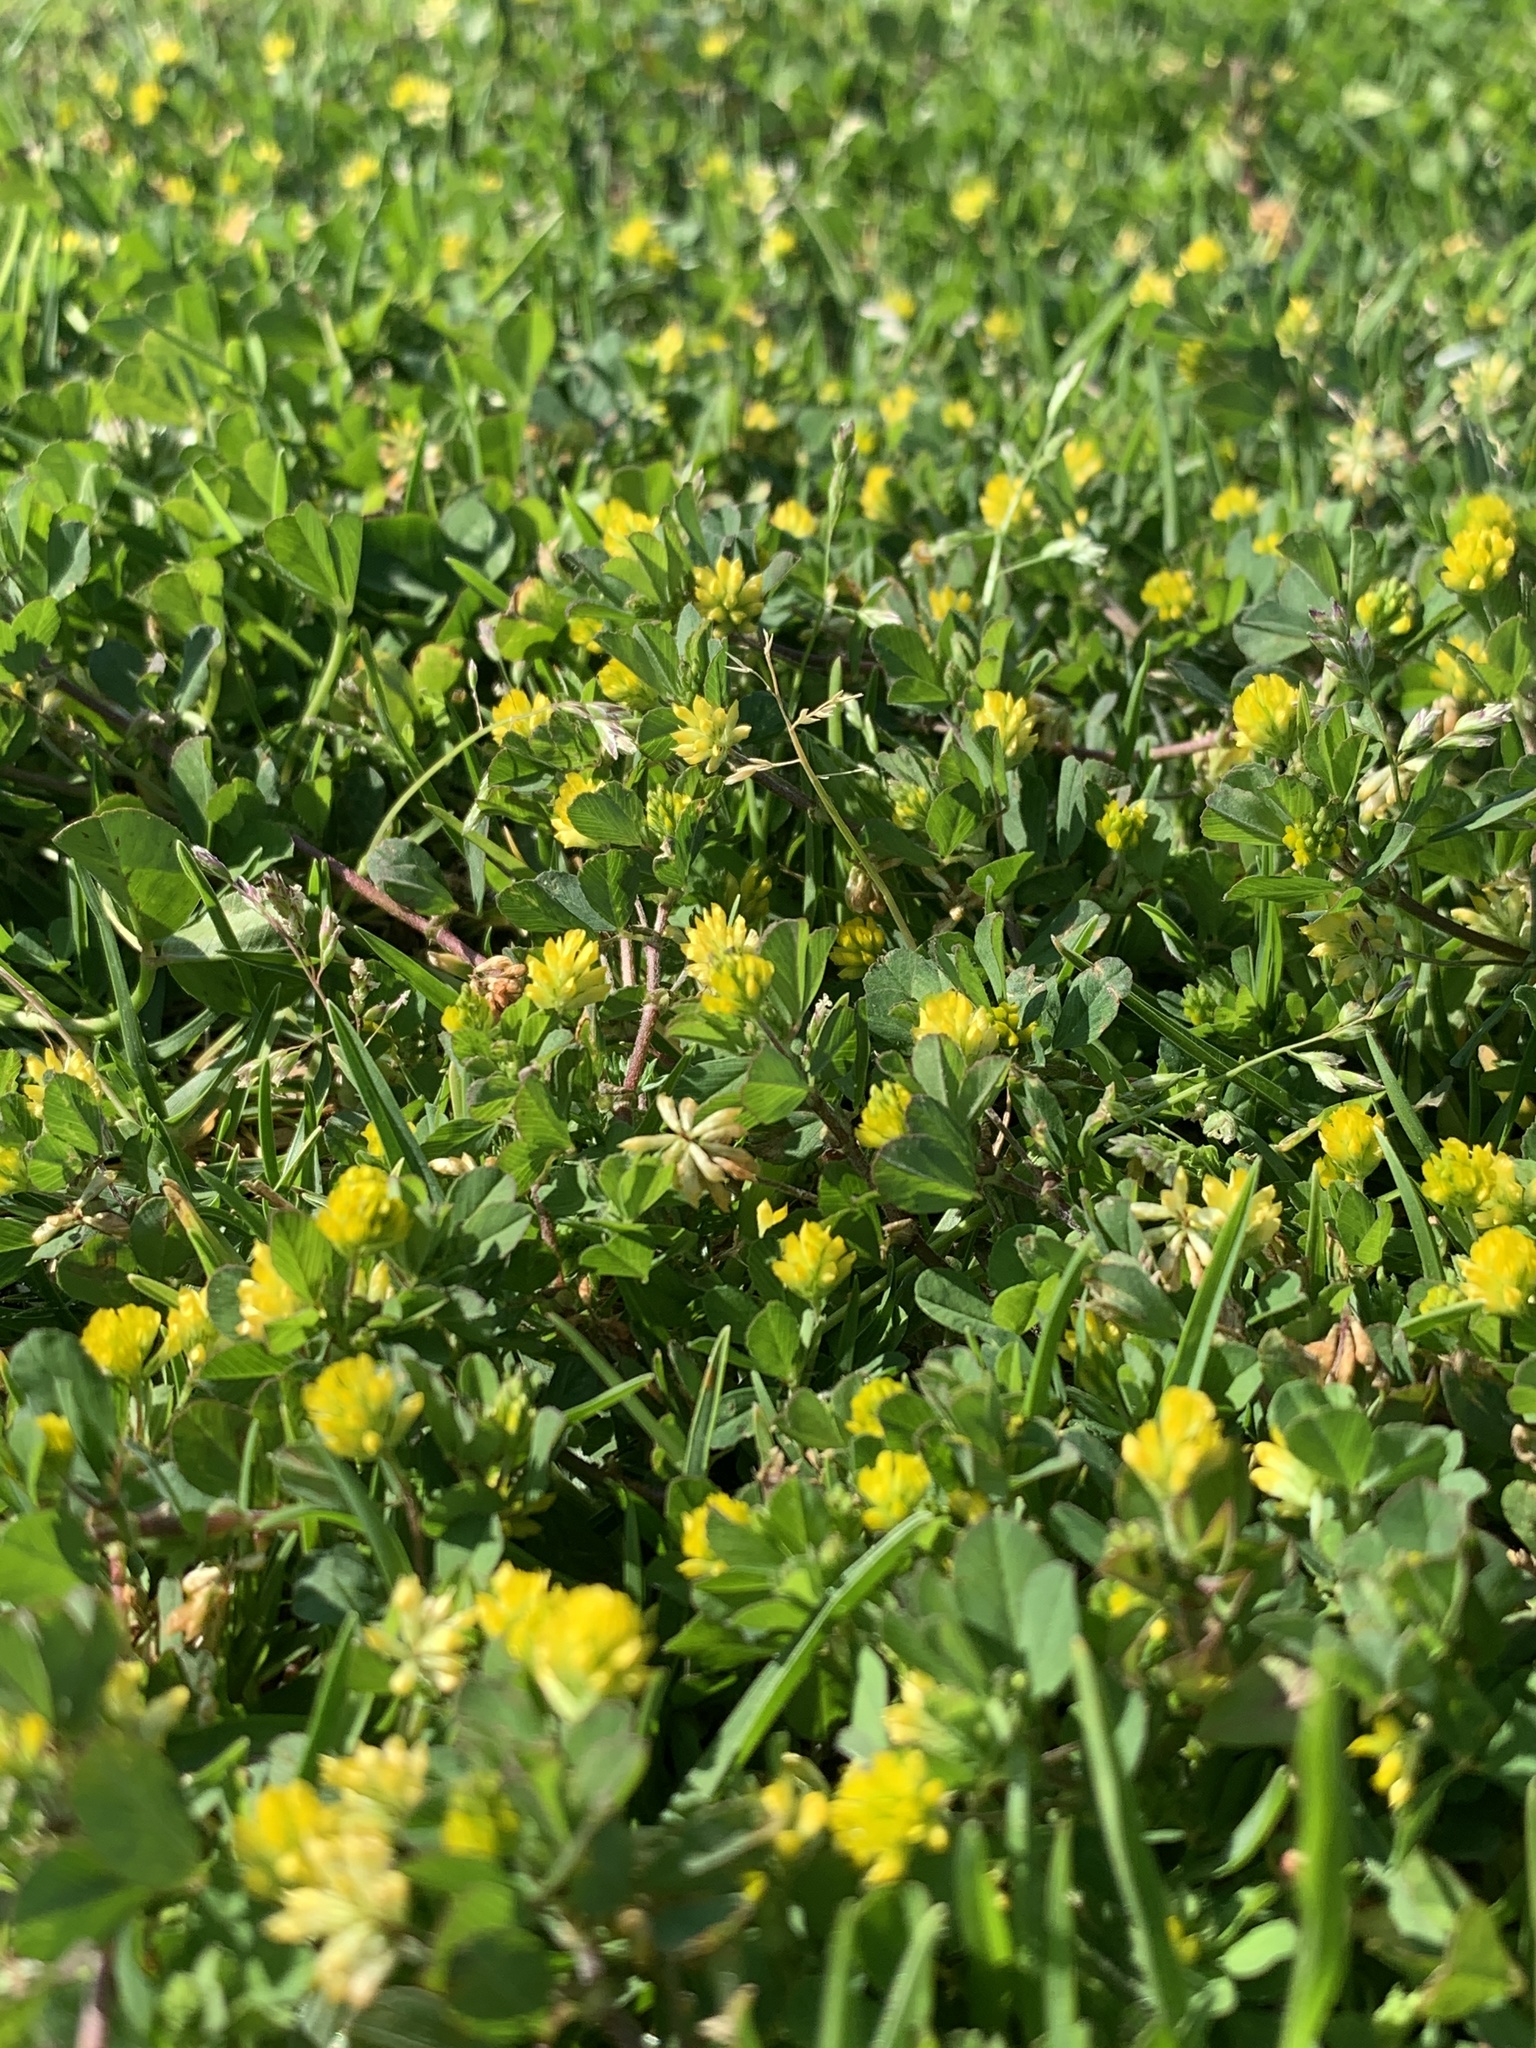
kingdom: Plantae
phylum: Tracheophyta
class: Magnoliopsida
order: Fabales
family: Fabaceae
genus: Trifolium
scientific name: Trifolium dubium
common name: Suckling clover
